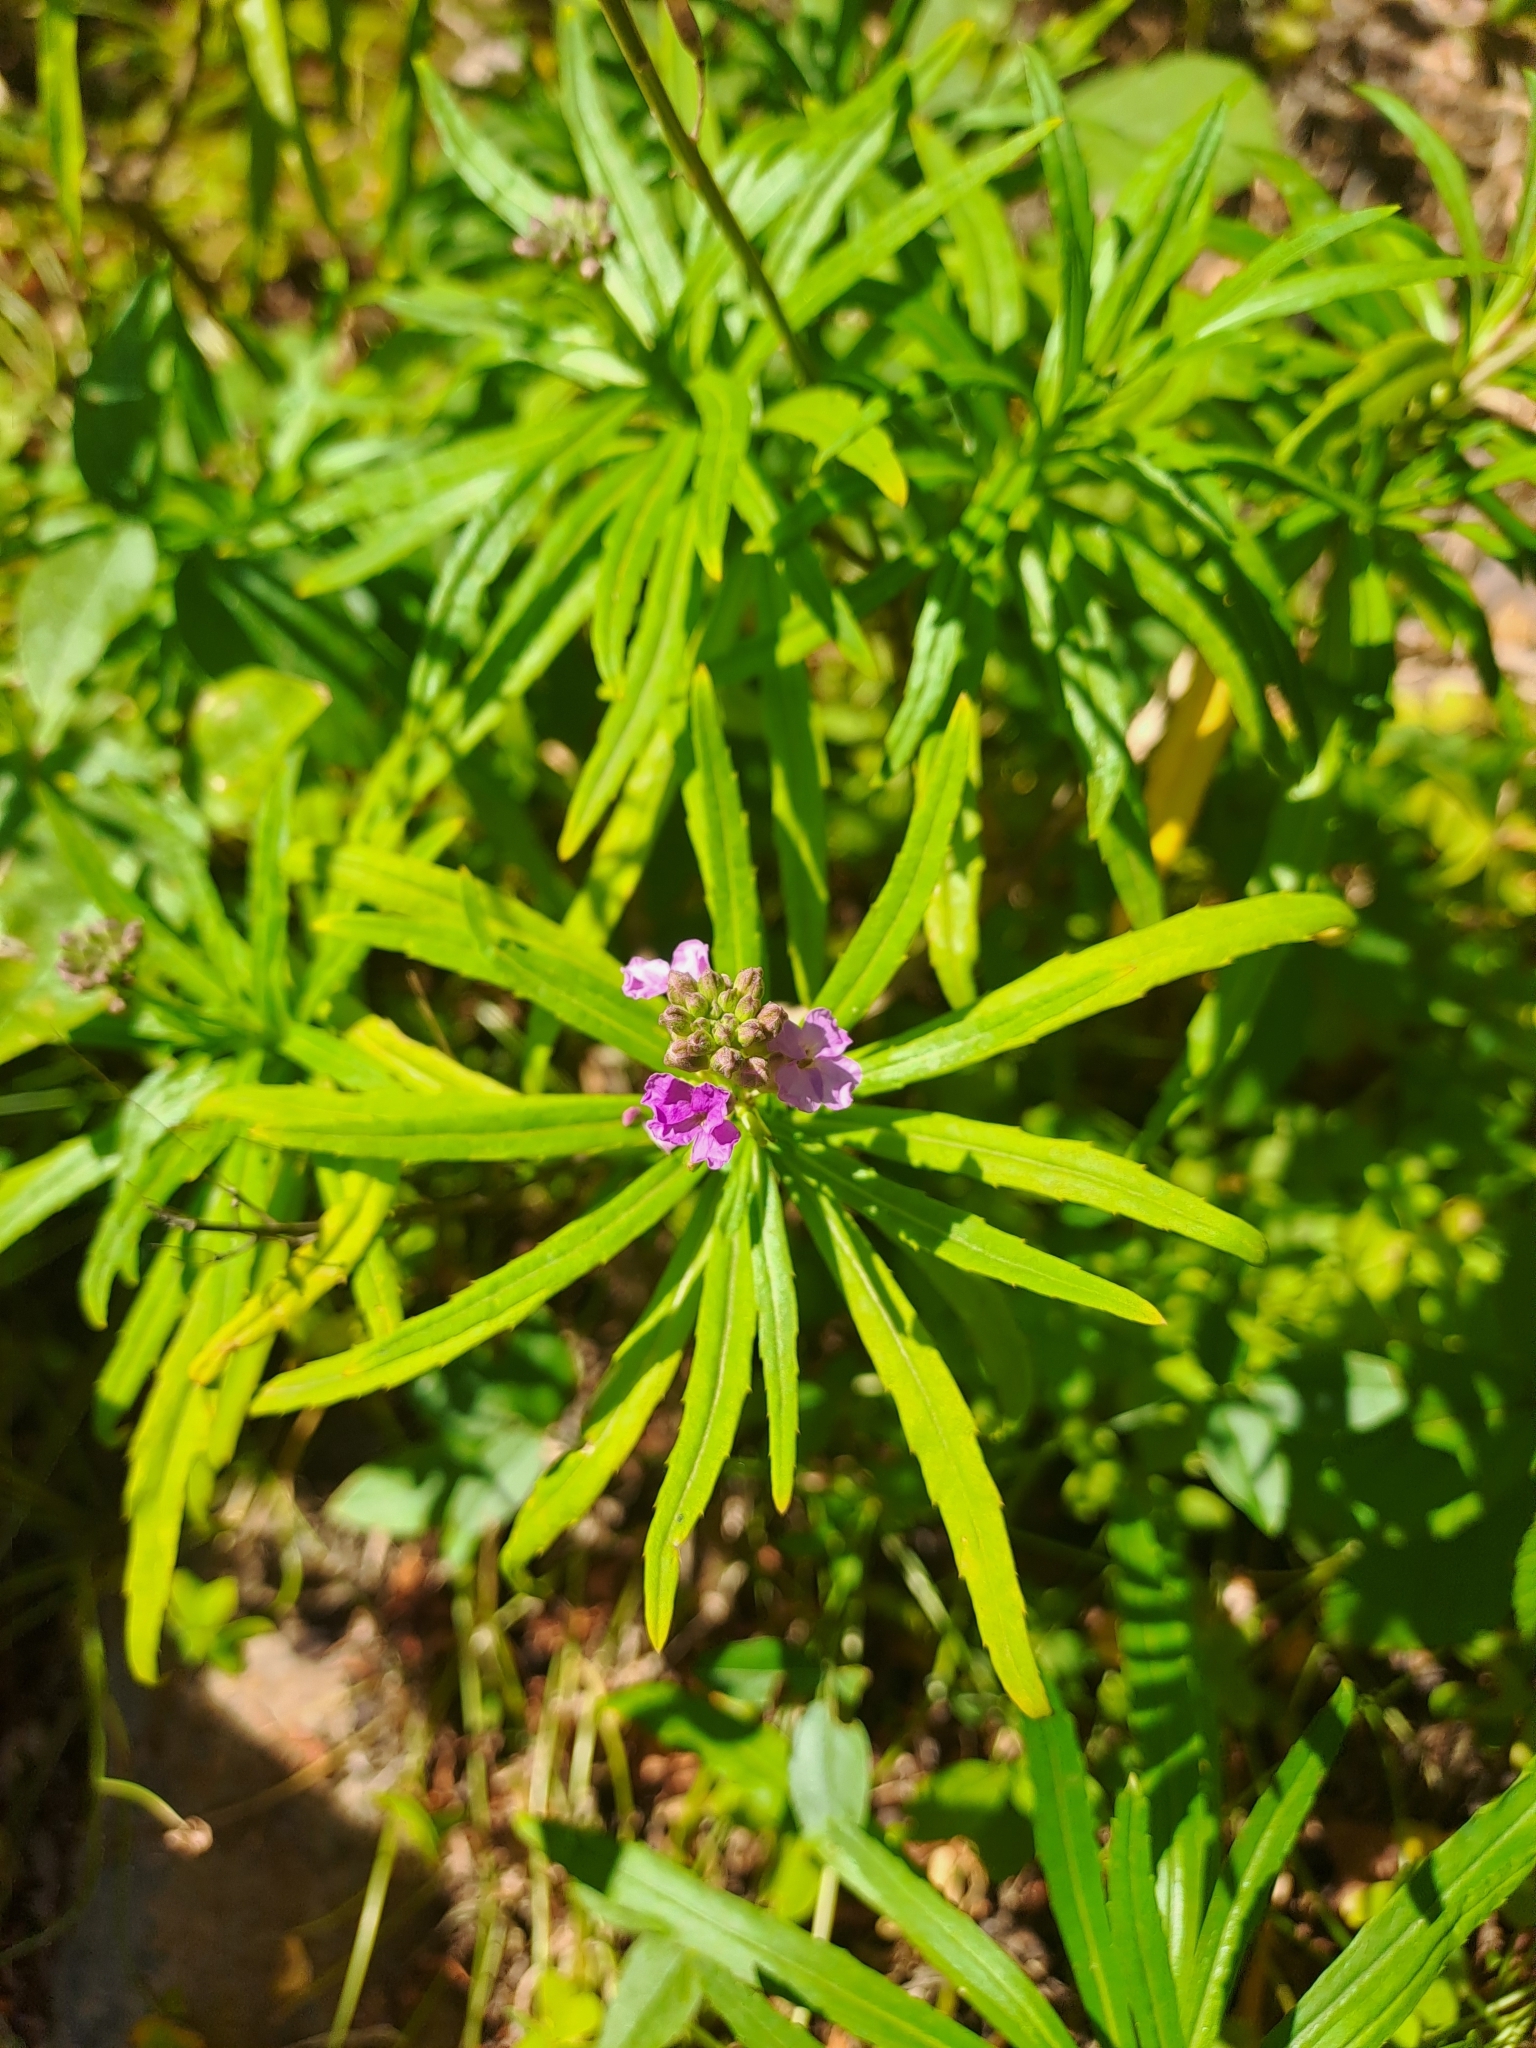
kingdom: Plantae
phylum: Tracheophyta
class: Magnoliopsida
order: Brassicales
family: Brassicaceae
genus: Erysimum
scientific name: Erysimum bicolor
